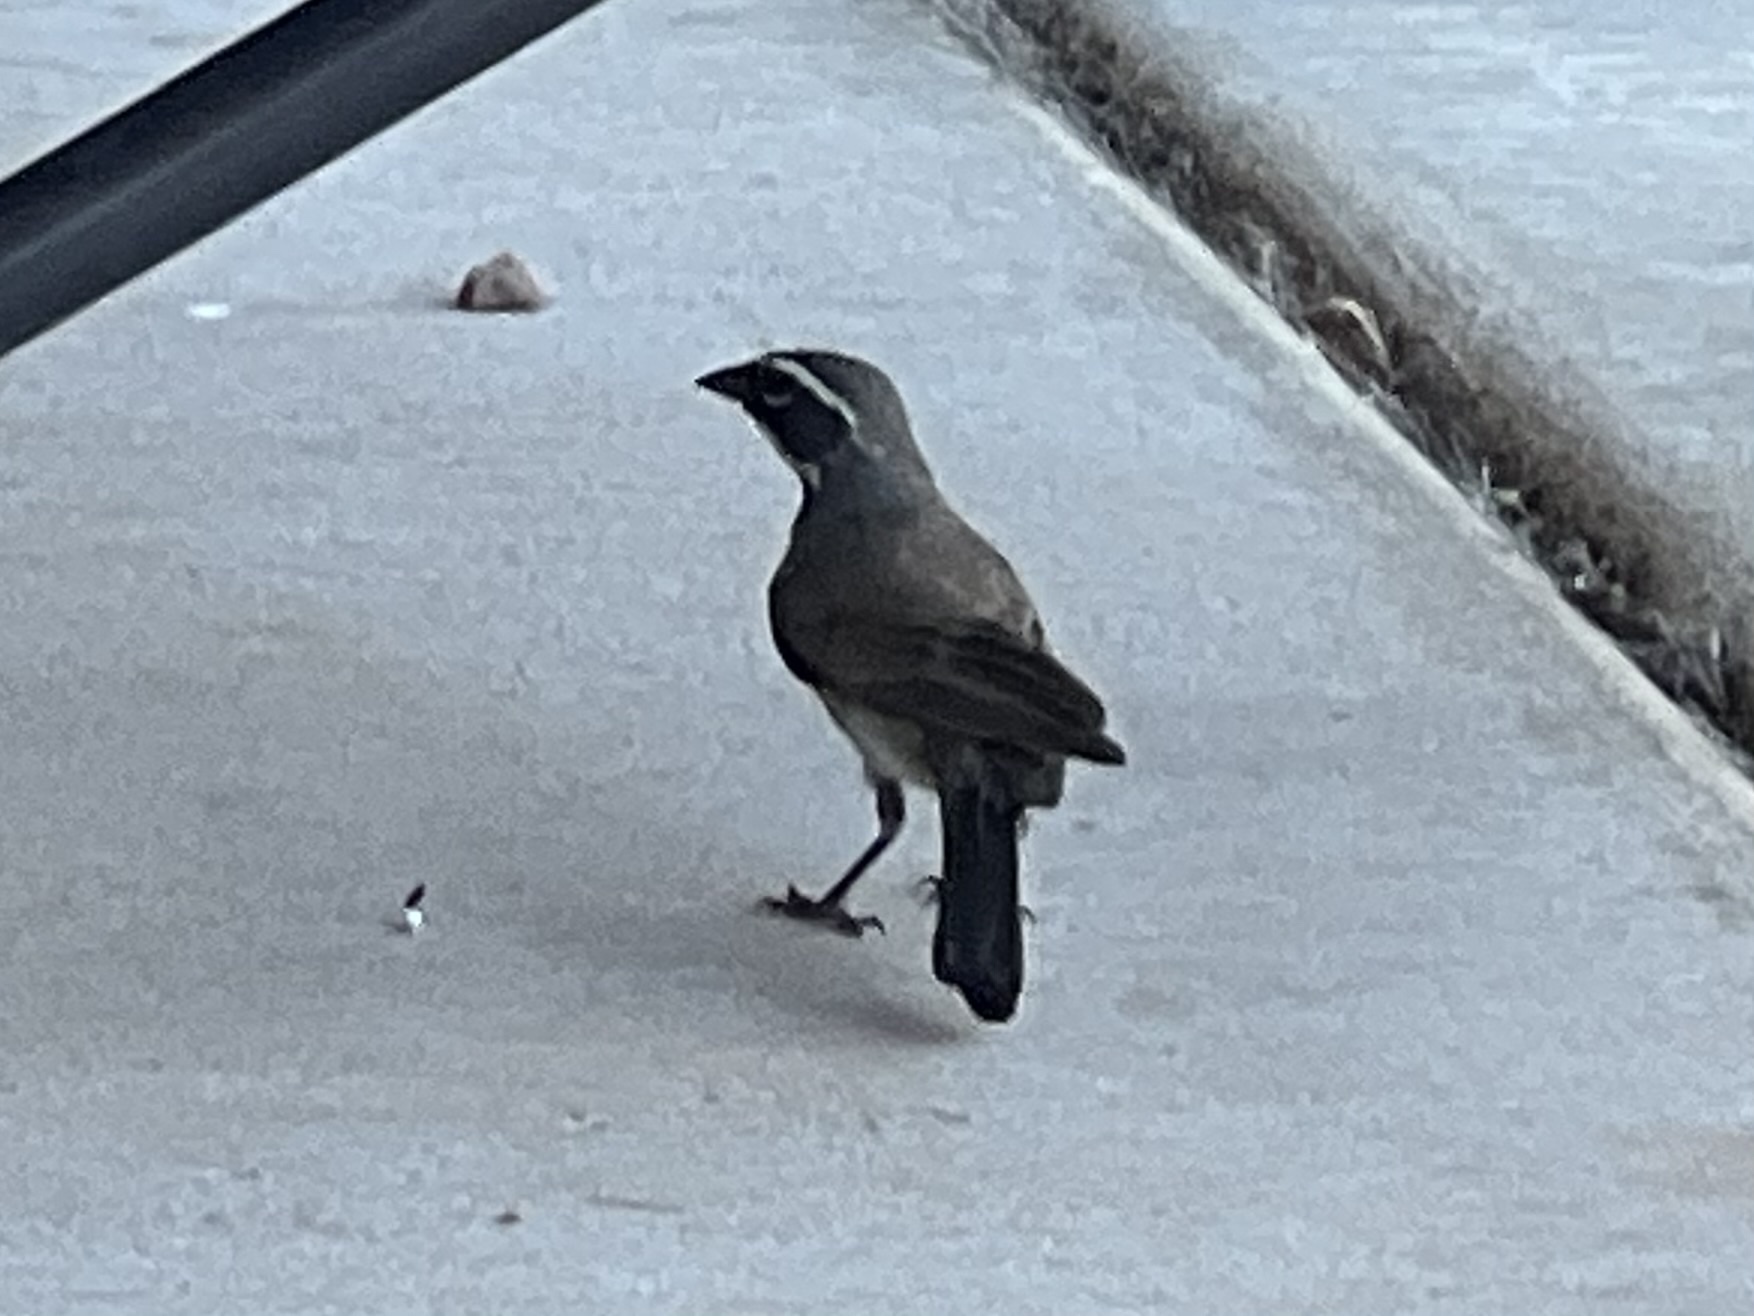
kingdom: Animalia
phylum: Chordata
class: Aves
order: Passeriformes
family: Passerellidae
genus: Amphispiza
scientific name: Amphispiza bilineata
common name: Black-throated sparrow
